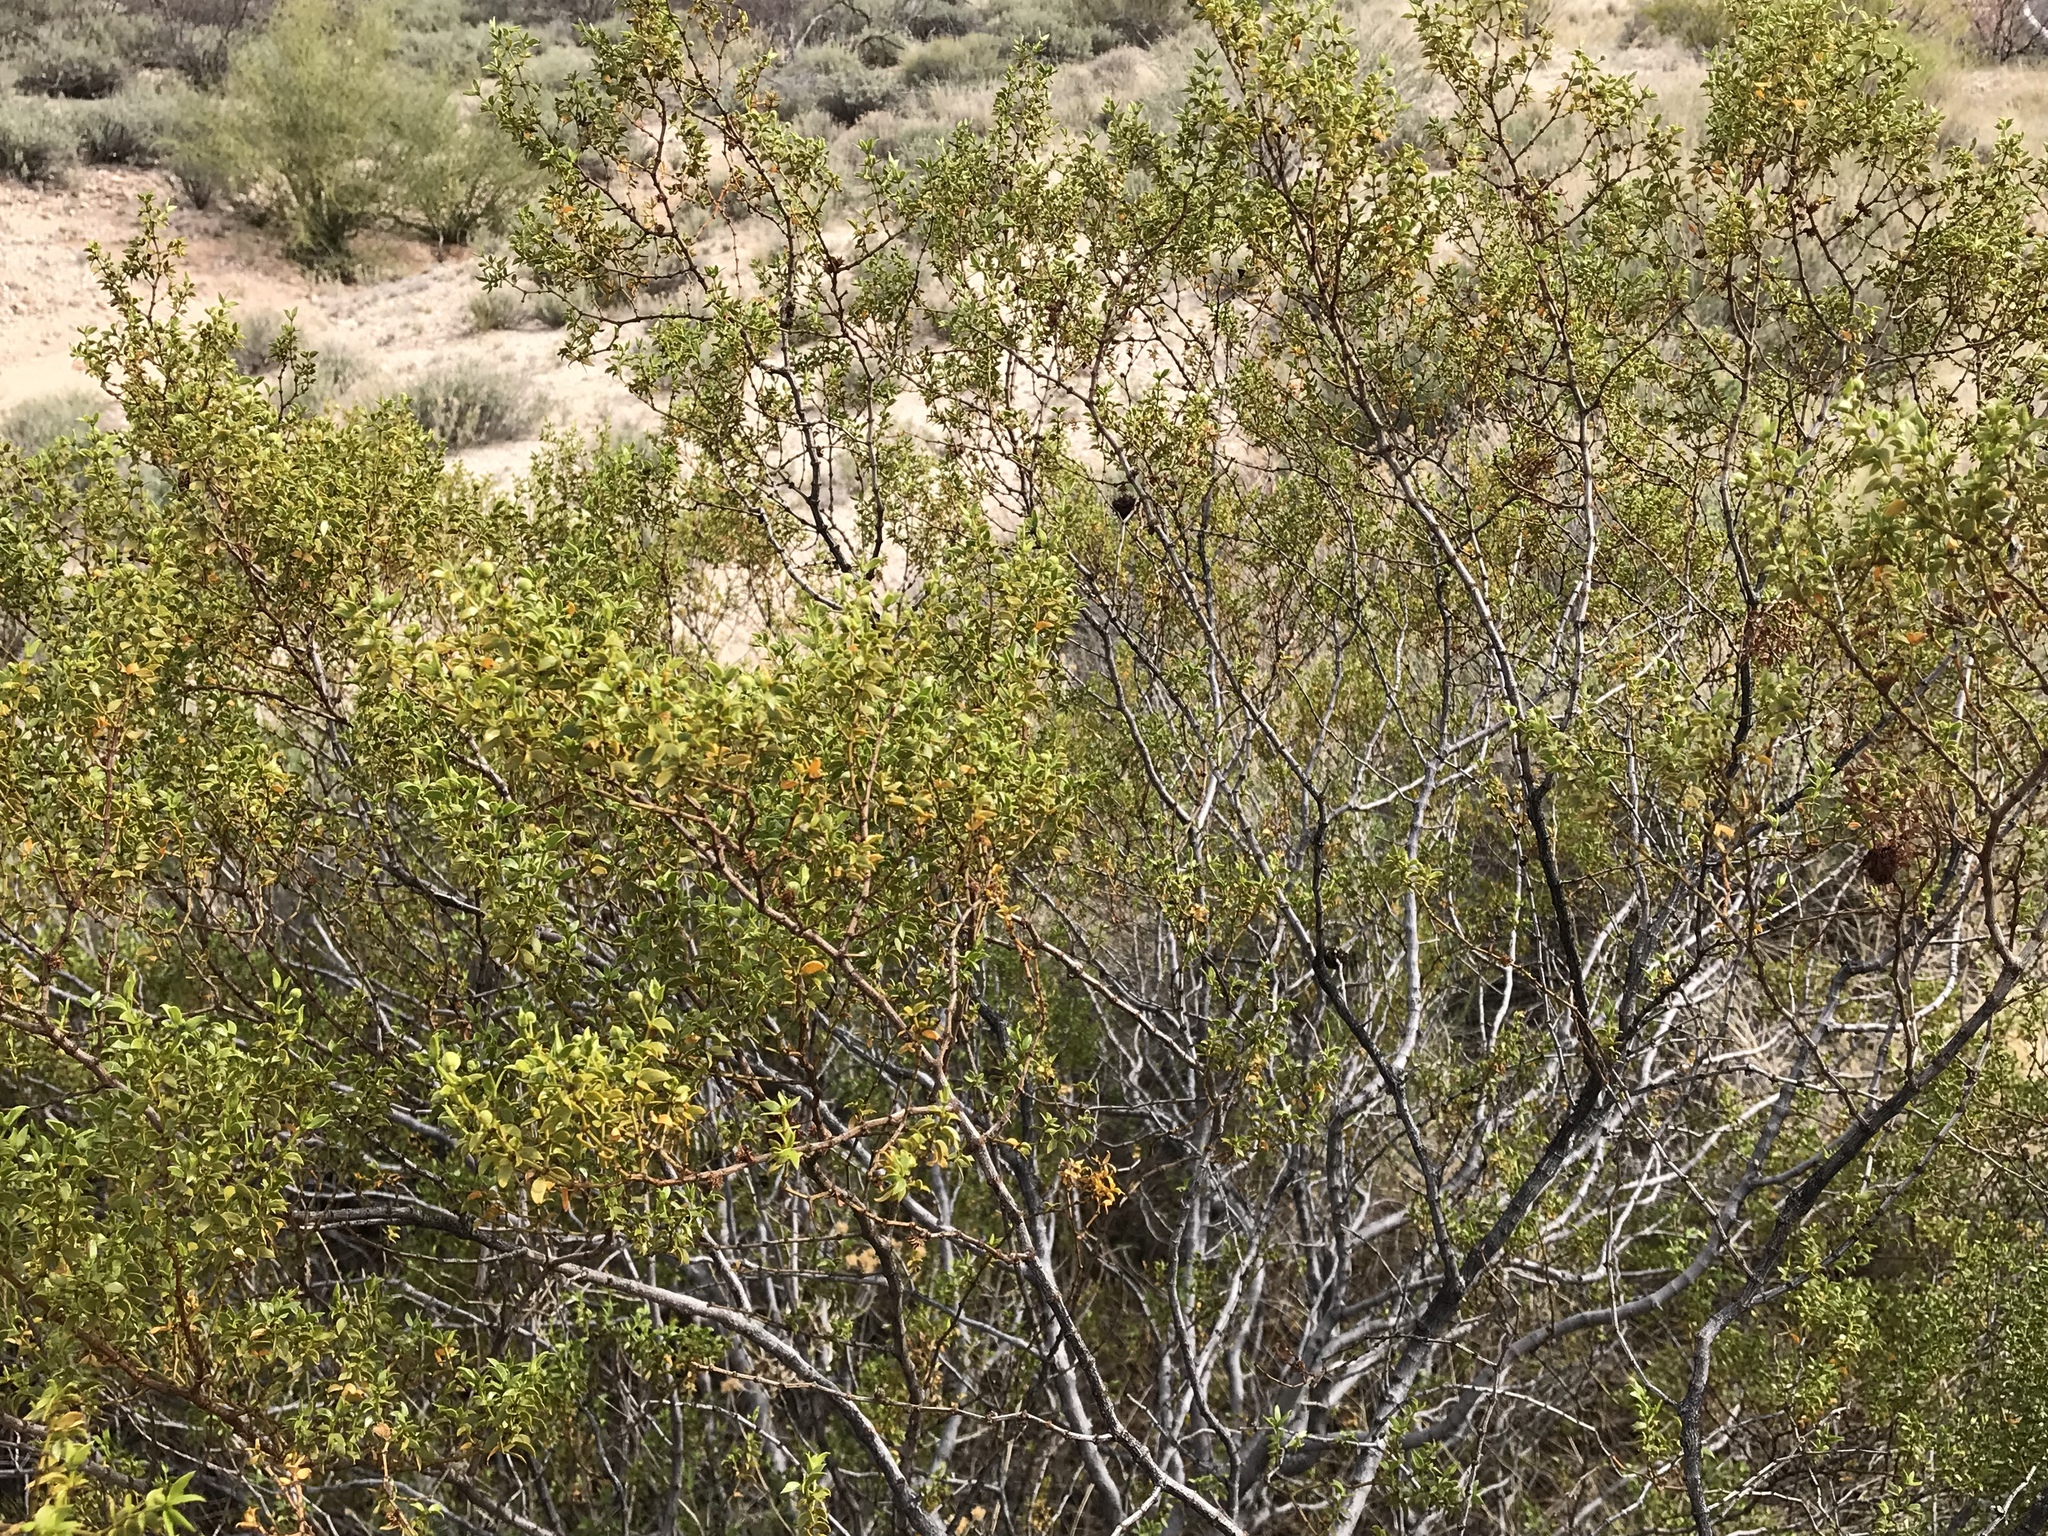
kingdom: Plantae
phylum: Tracheophyta
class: Magnoliopsida
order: Zygophyllales
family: Zygophyllaceae
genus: Larrea
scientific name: Larrea tridentata
